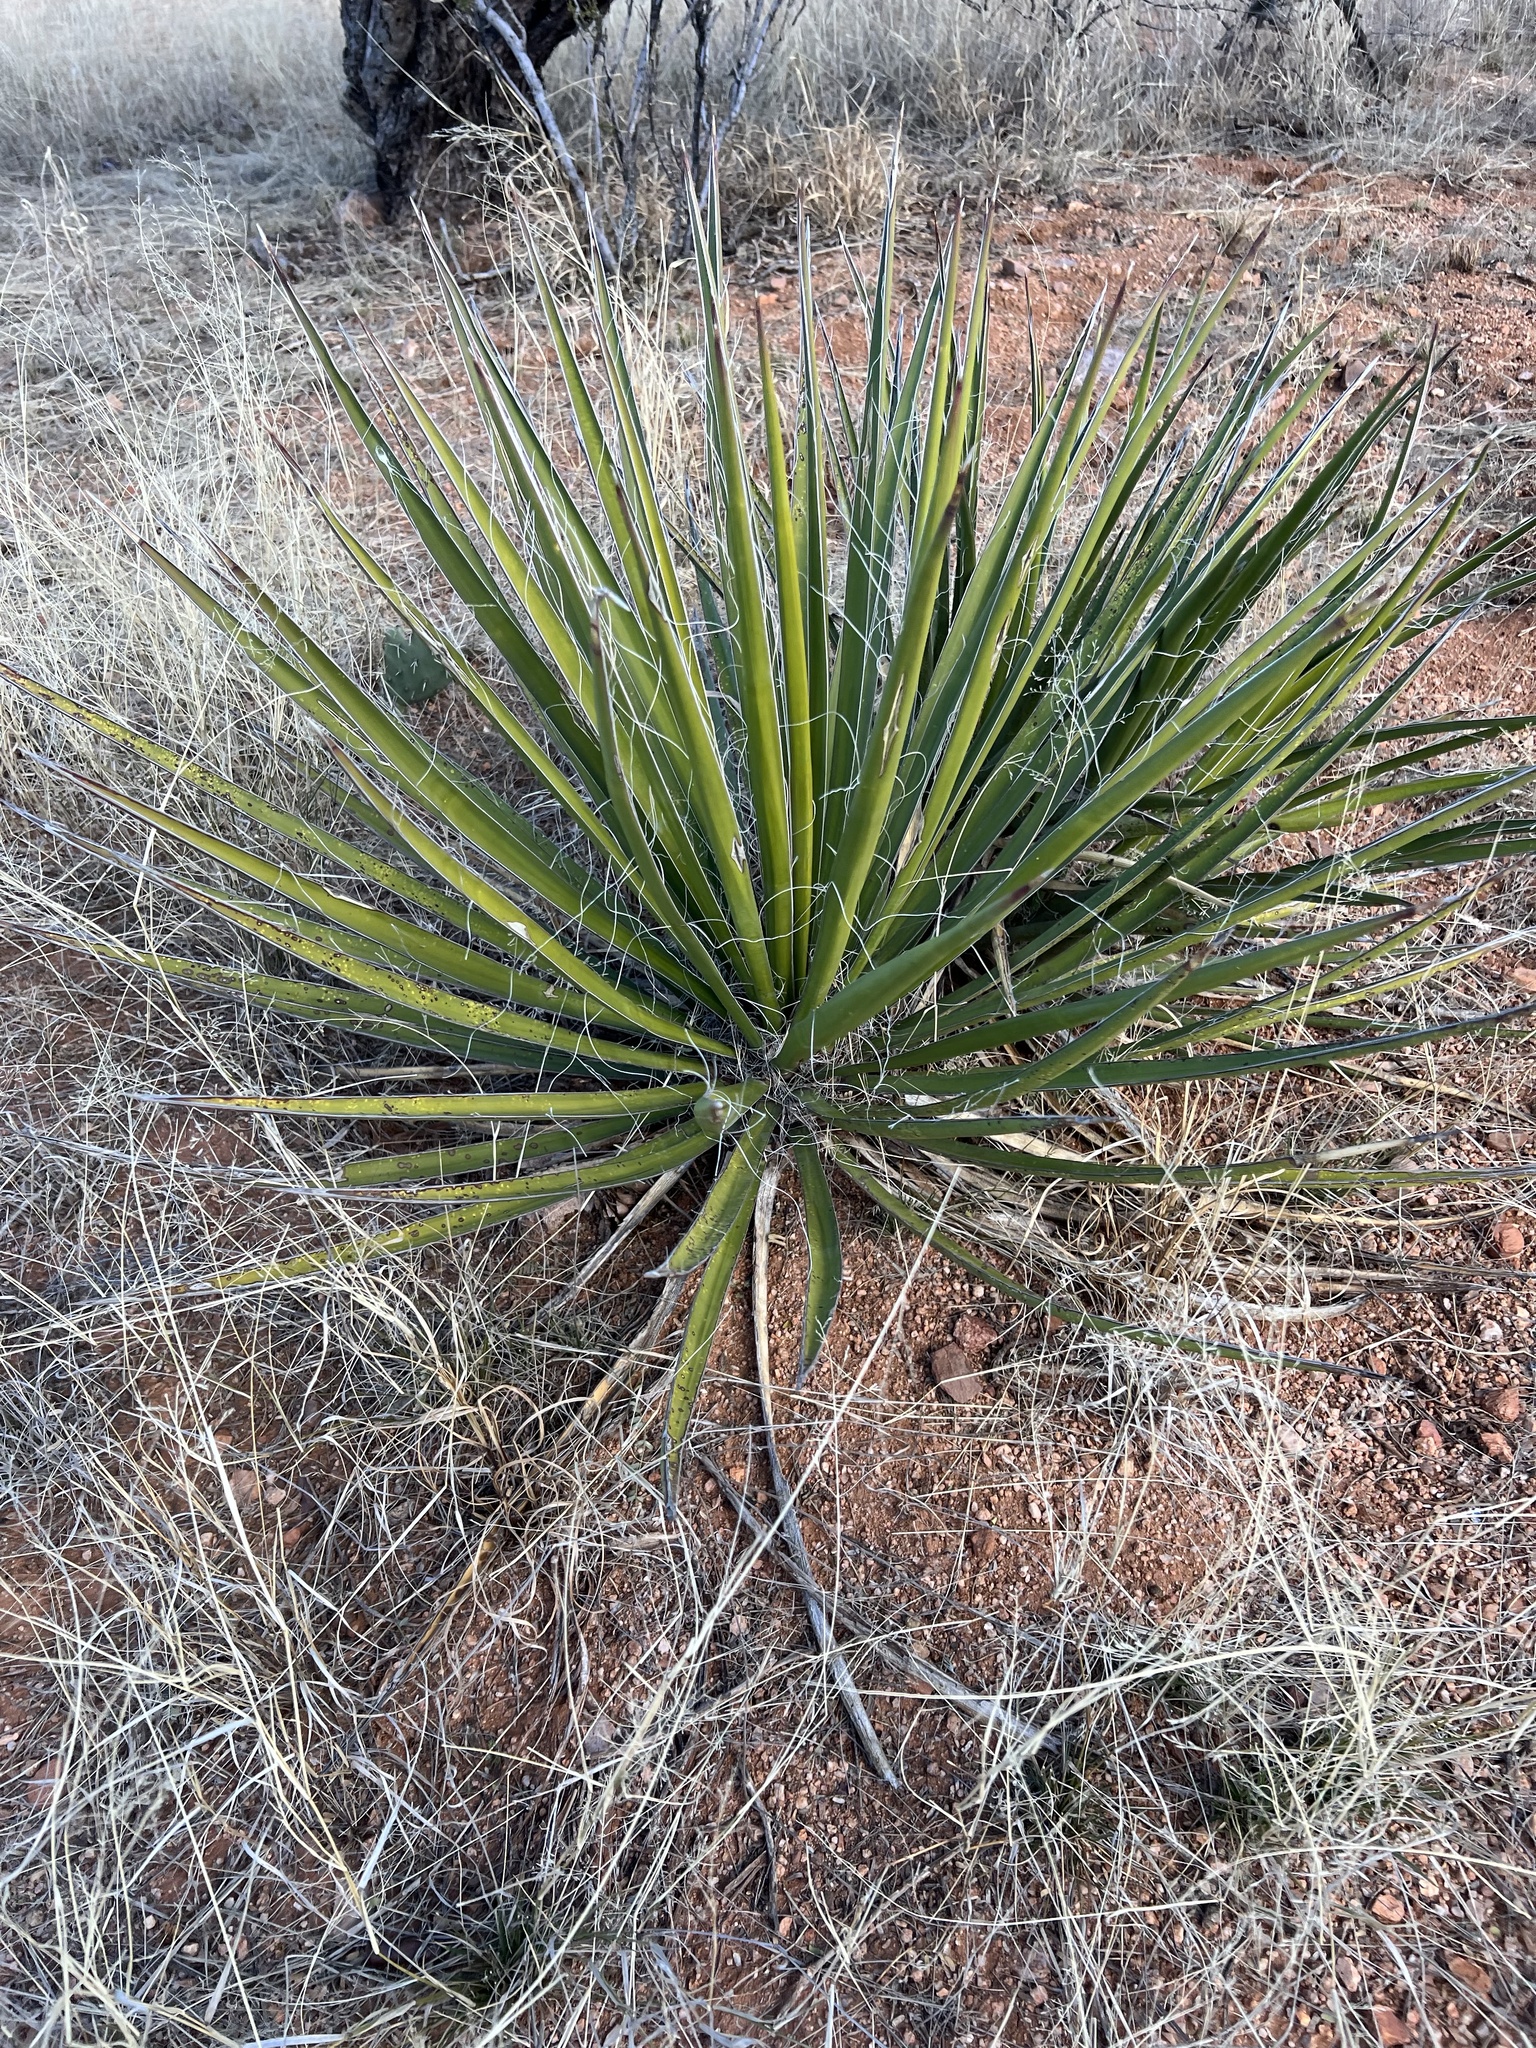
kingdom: Plantae
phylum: Tracheophyta
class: Liliopsida
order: Asparagales
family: Asparagaceae
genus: Yucca
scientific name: Yucca baccata
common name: Banana yucca
